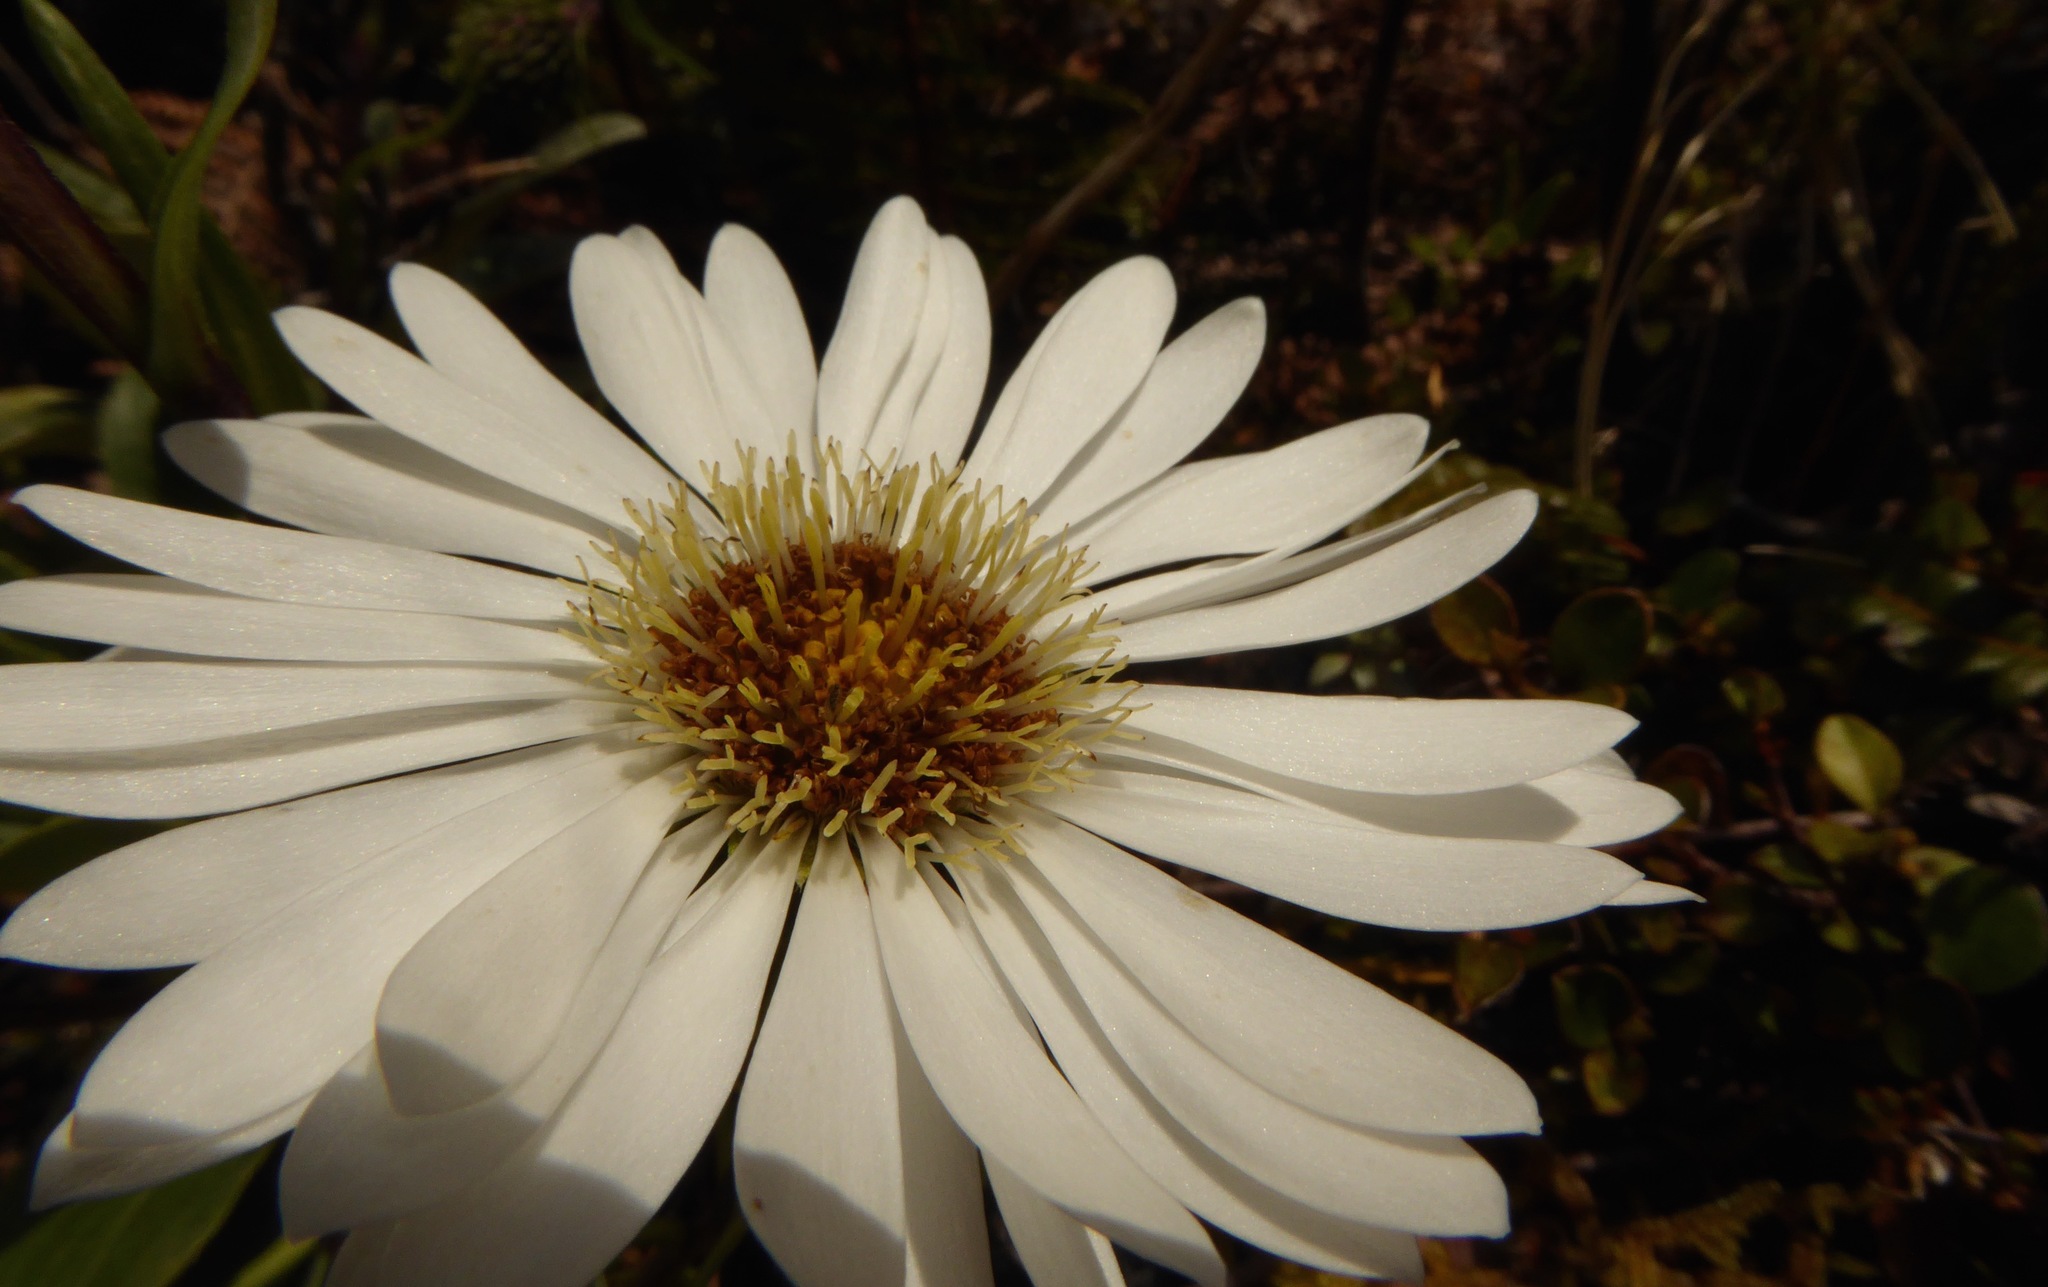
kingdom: Plantae
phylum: Tracheophyta
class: Magnoliopsida
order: Asterales
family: Asteraceae
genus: Celmisia
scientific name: Celmisia holosericea
